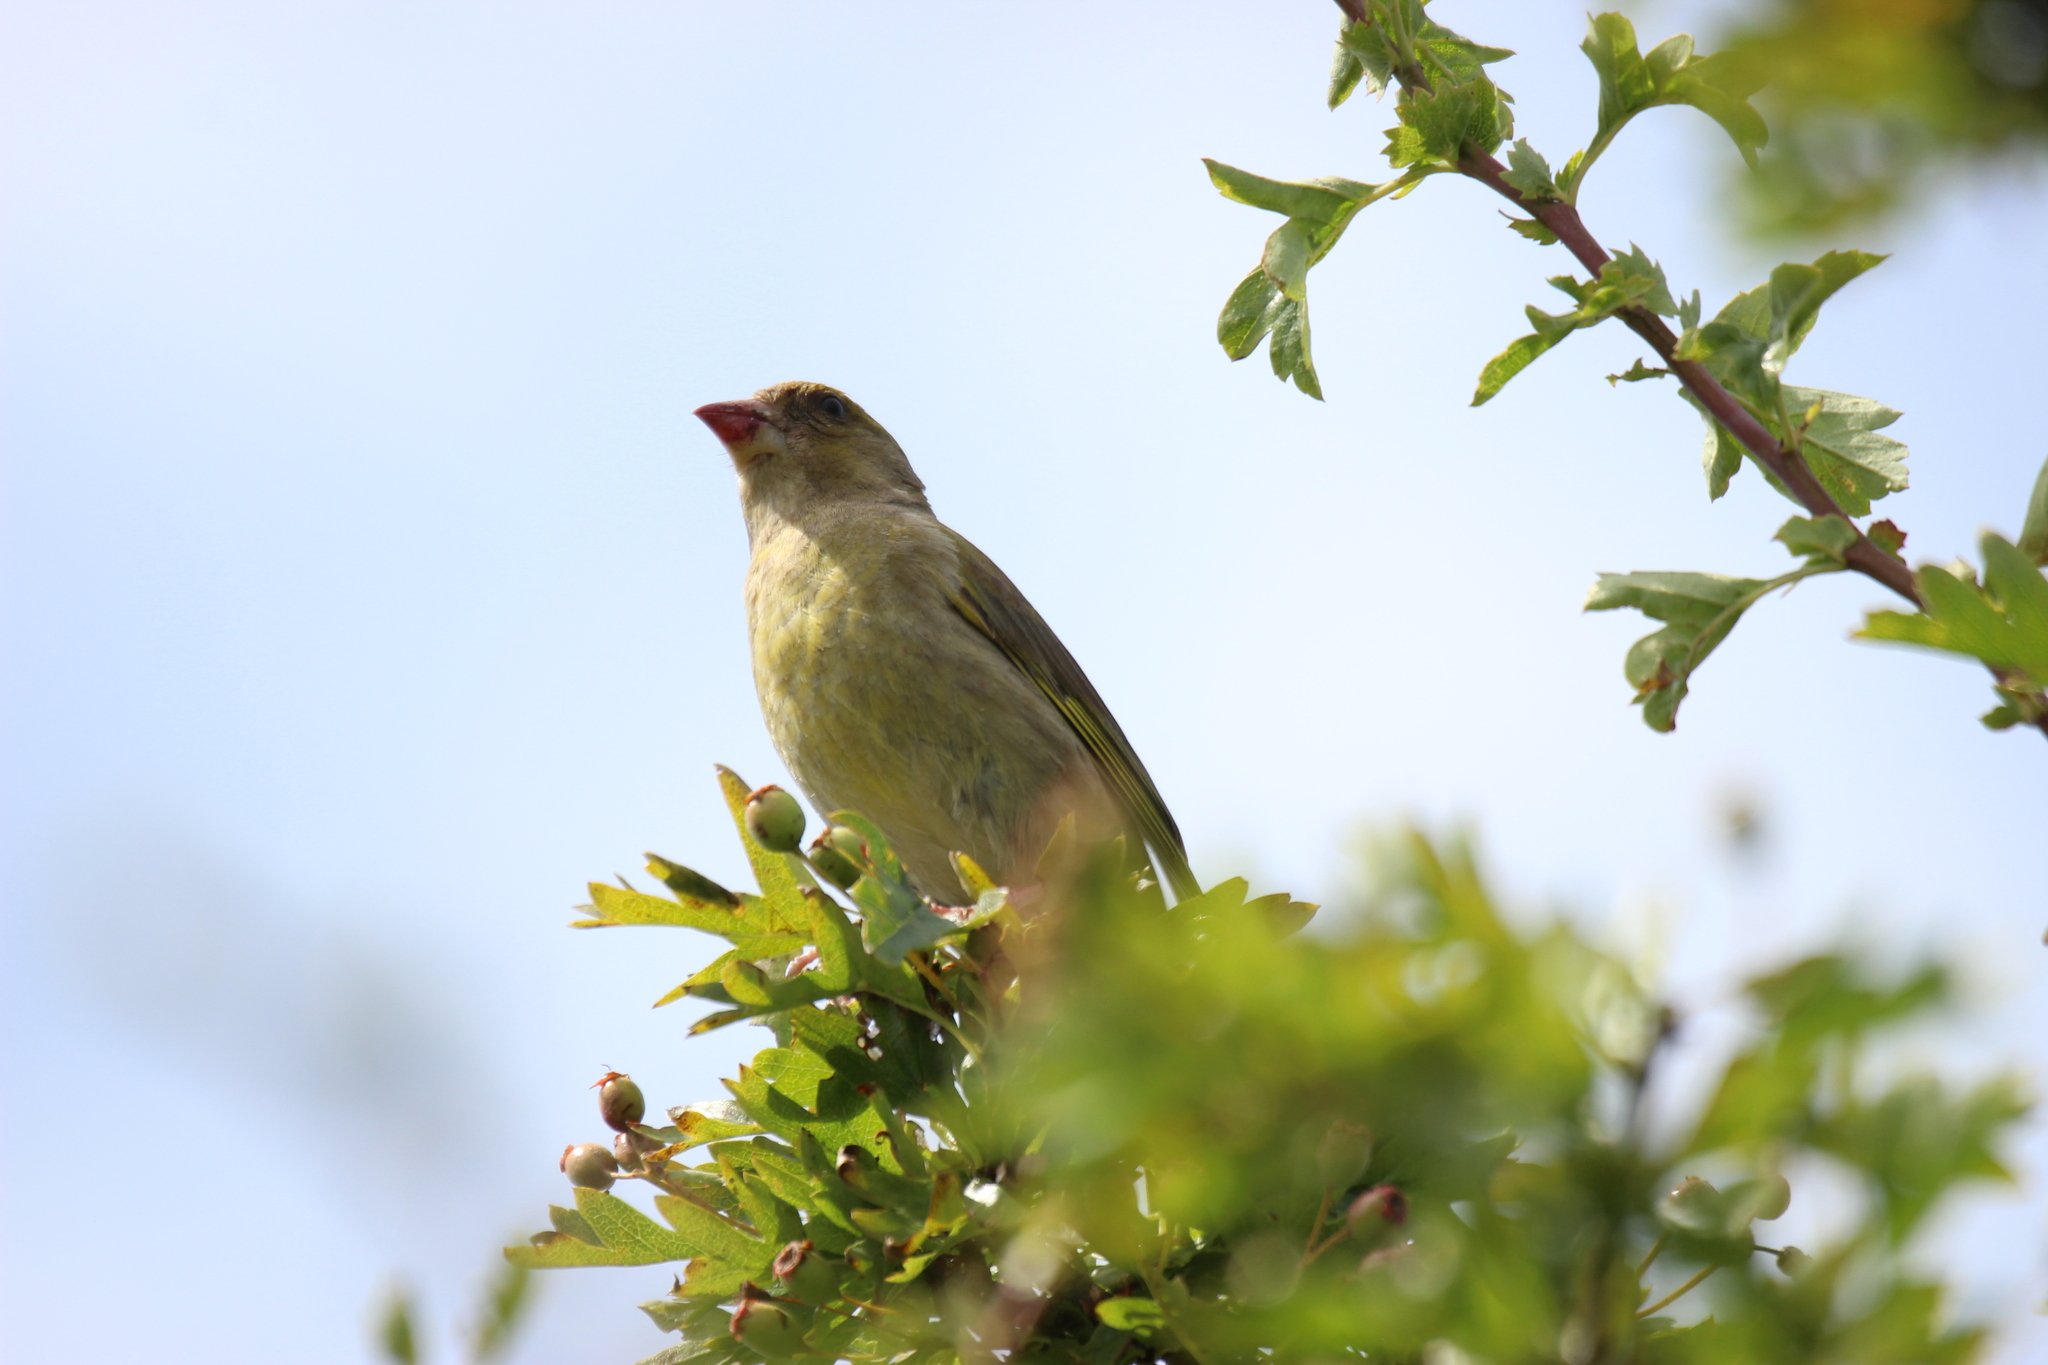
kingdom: Plantae
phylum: Tracheophyta
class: Liliopsida
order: Poales
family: Poaceae
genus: Chloris
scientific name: Chloris chloris
